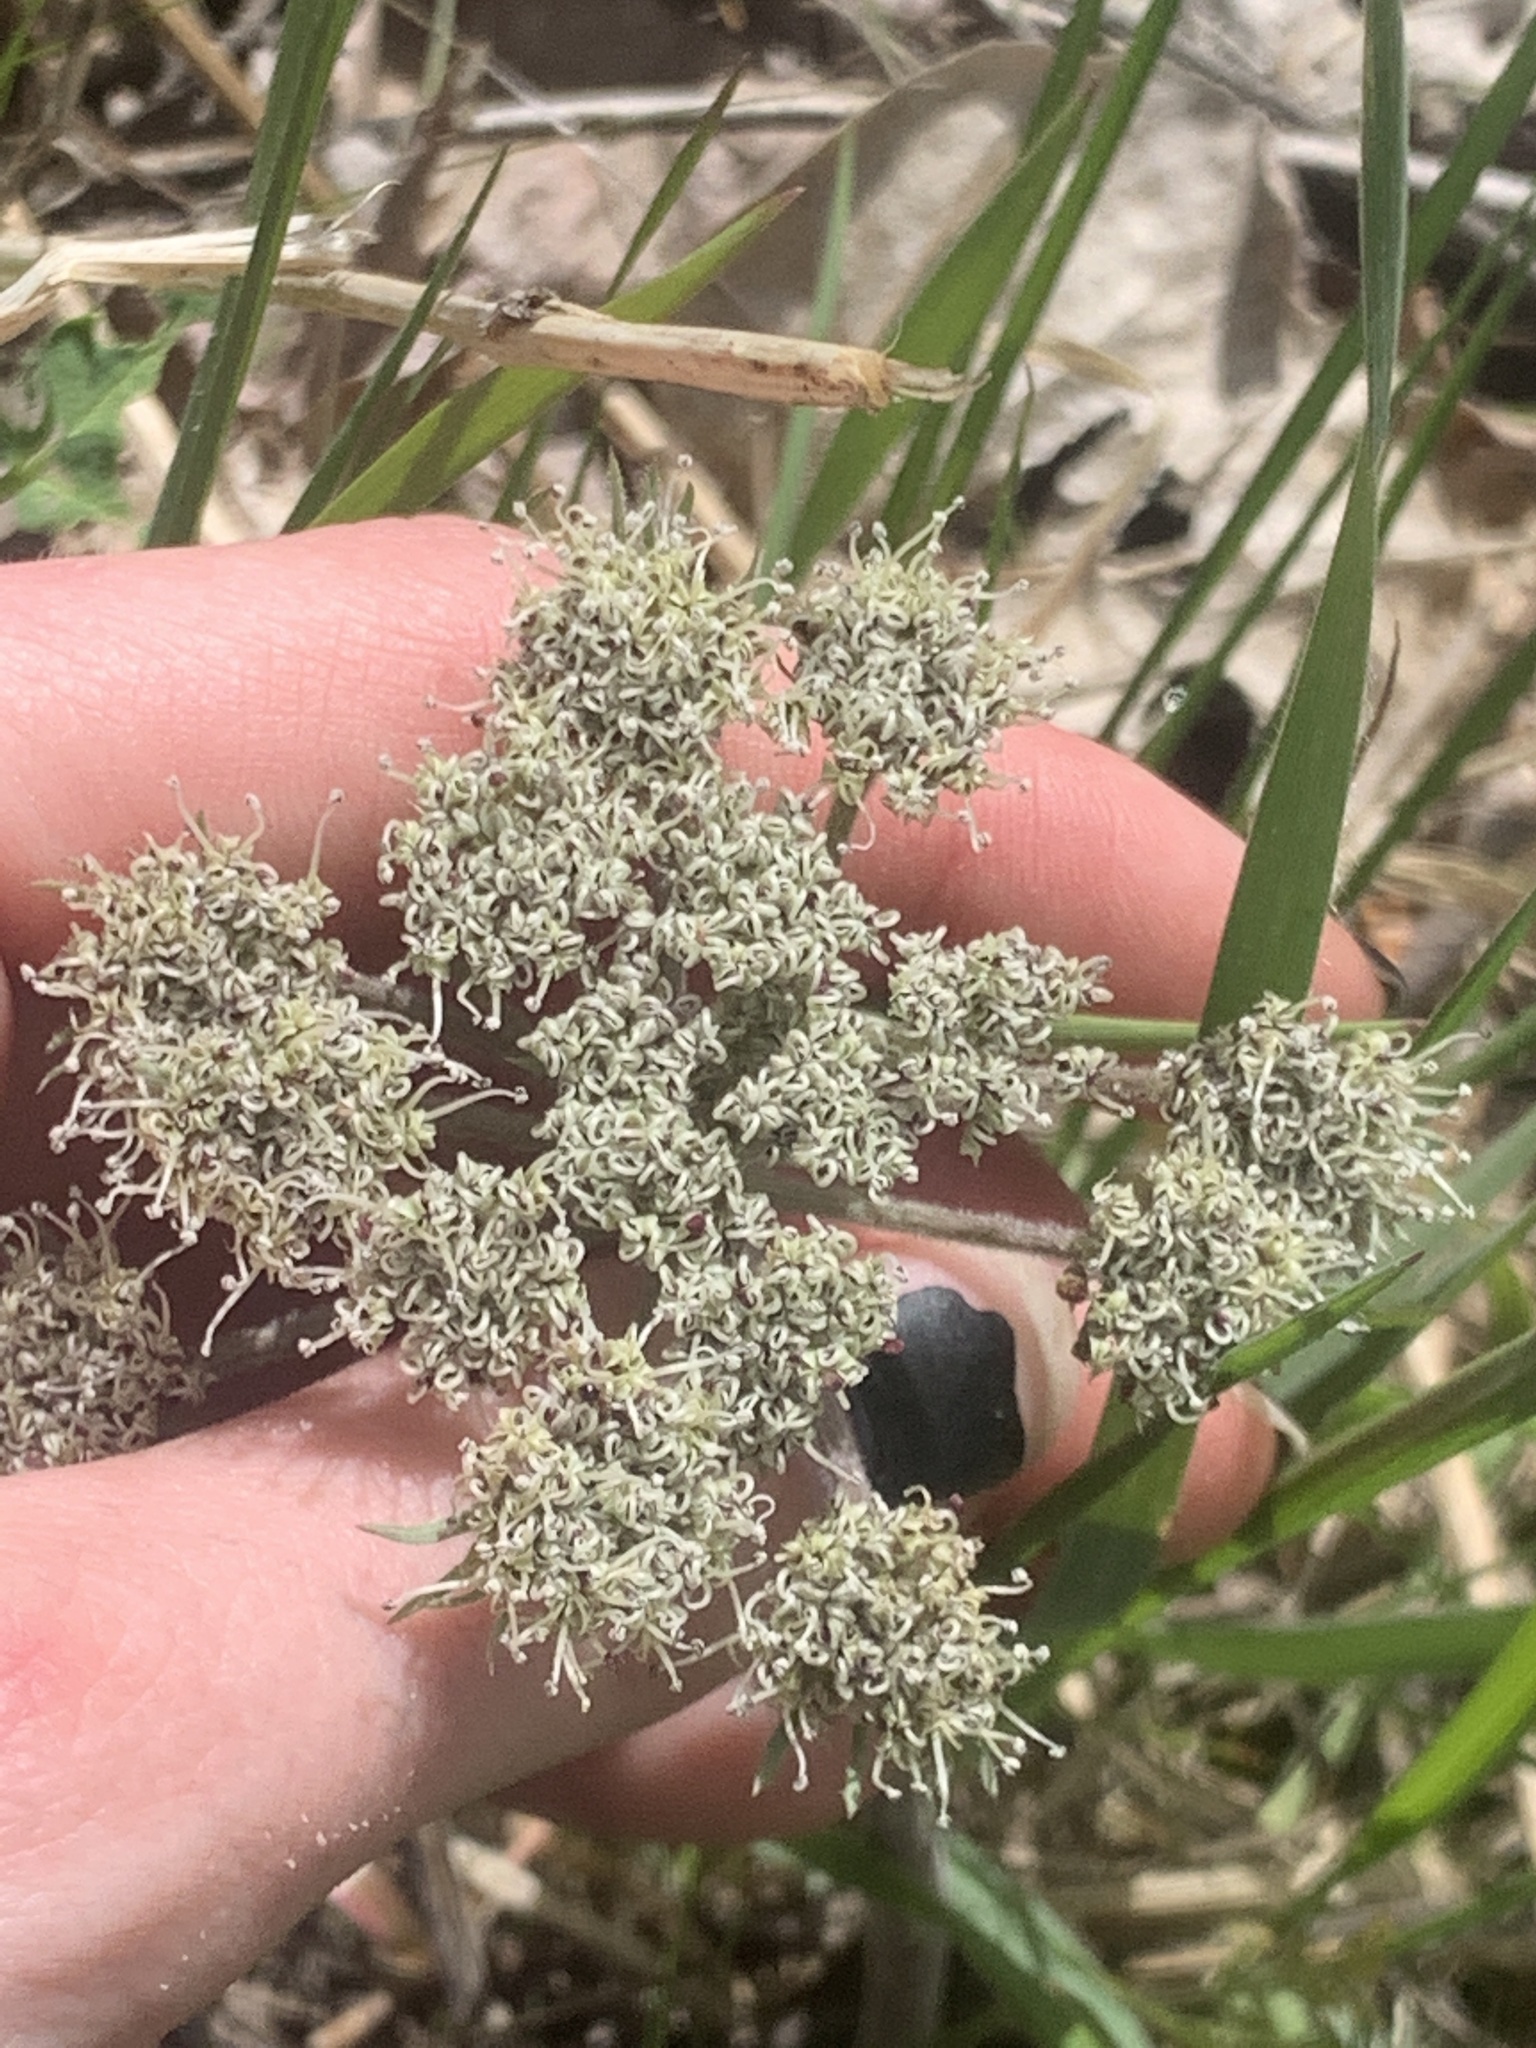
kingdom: Plantae
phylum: Tracheophyta
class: Magnoliopsida
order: Apiales
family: Apiaceae
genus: Lomatium
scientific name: Lomatium macrocarpum
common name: Big-seed biscuitroot
